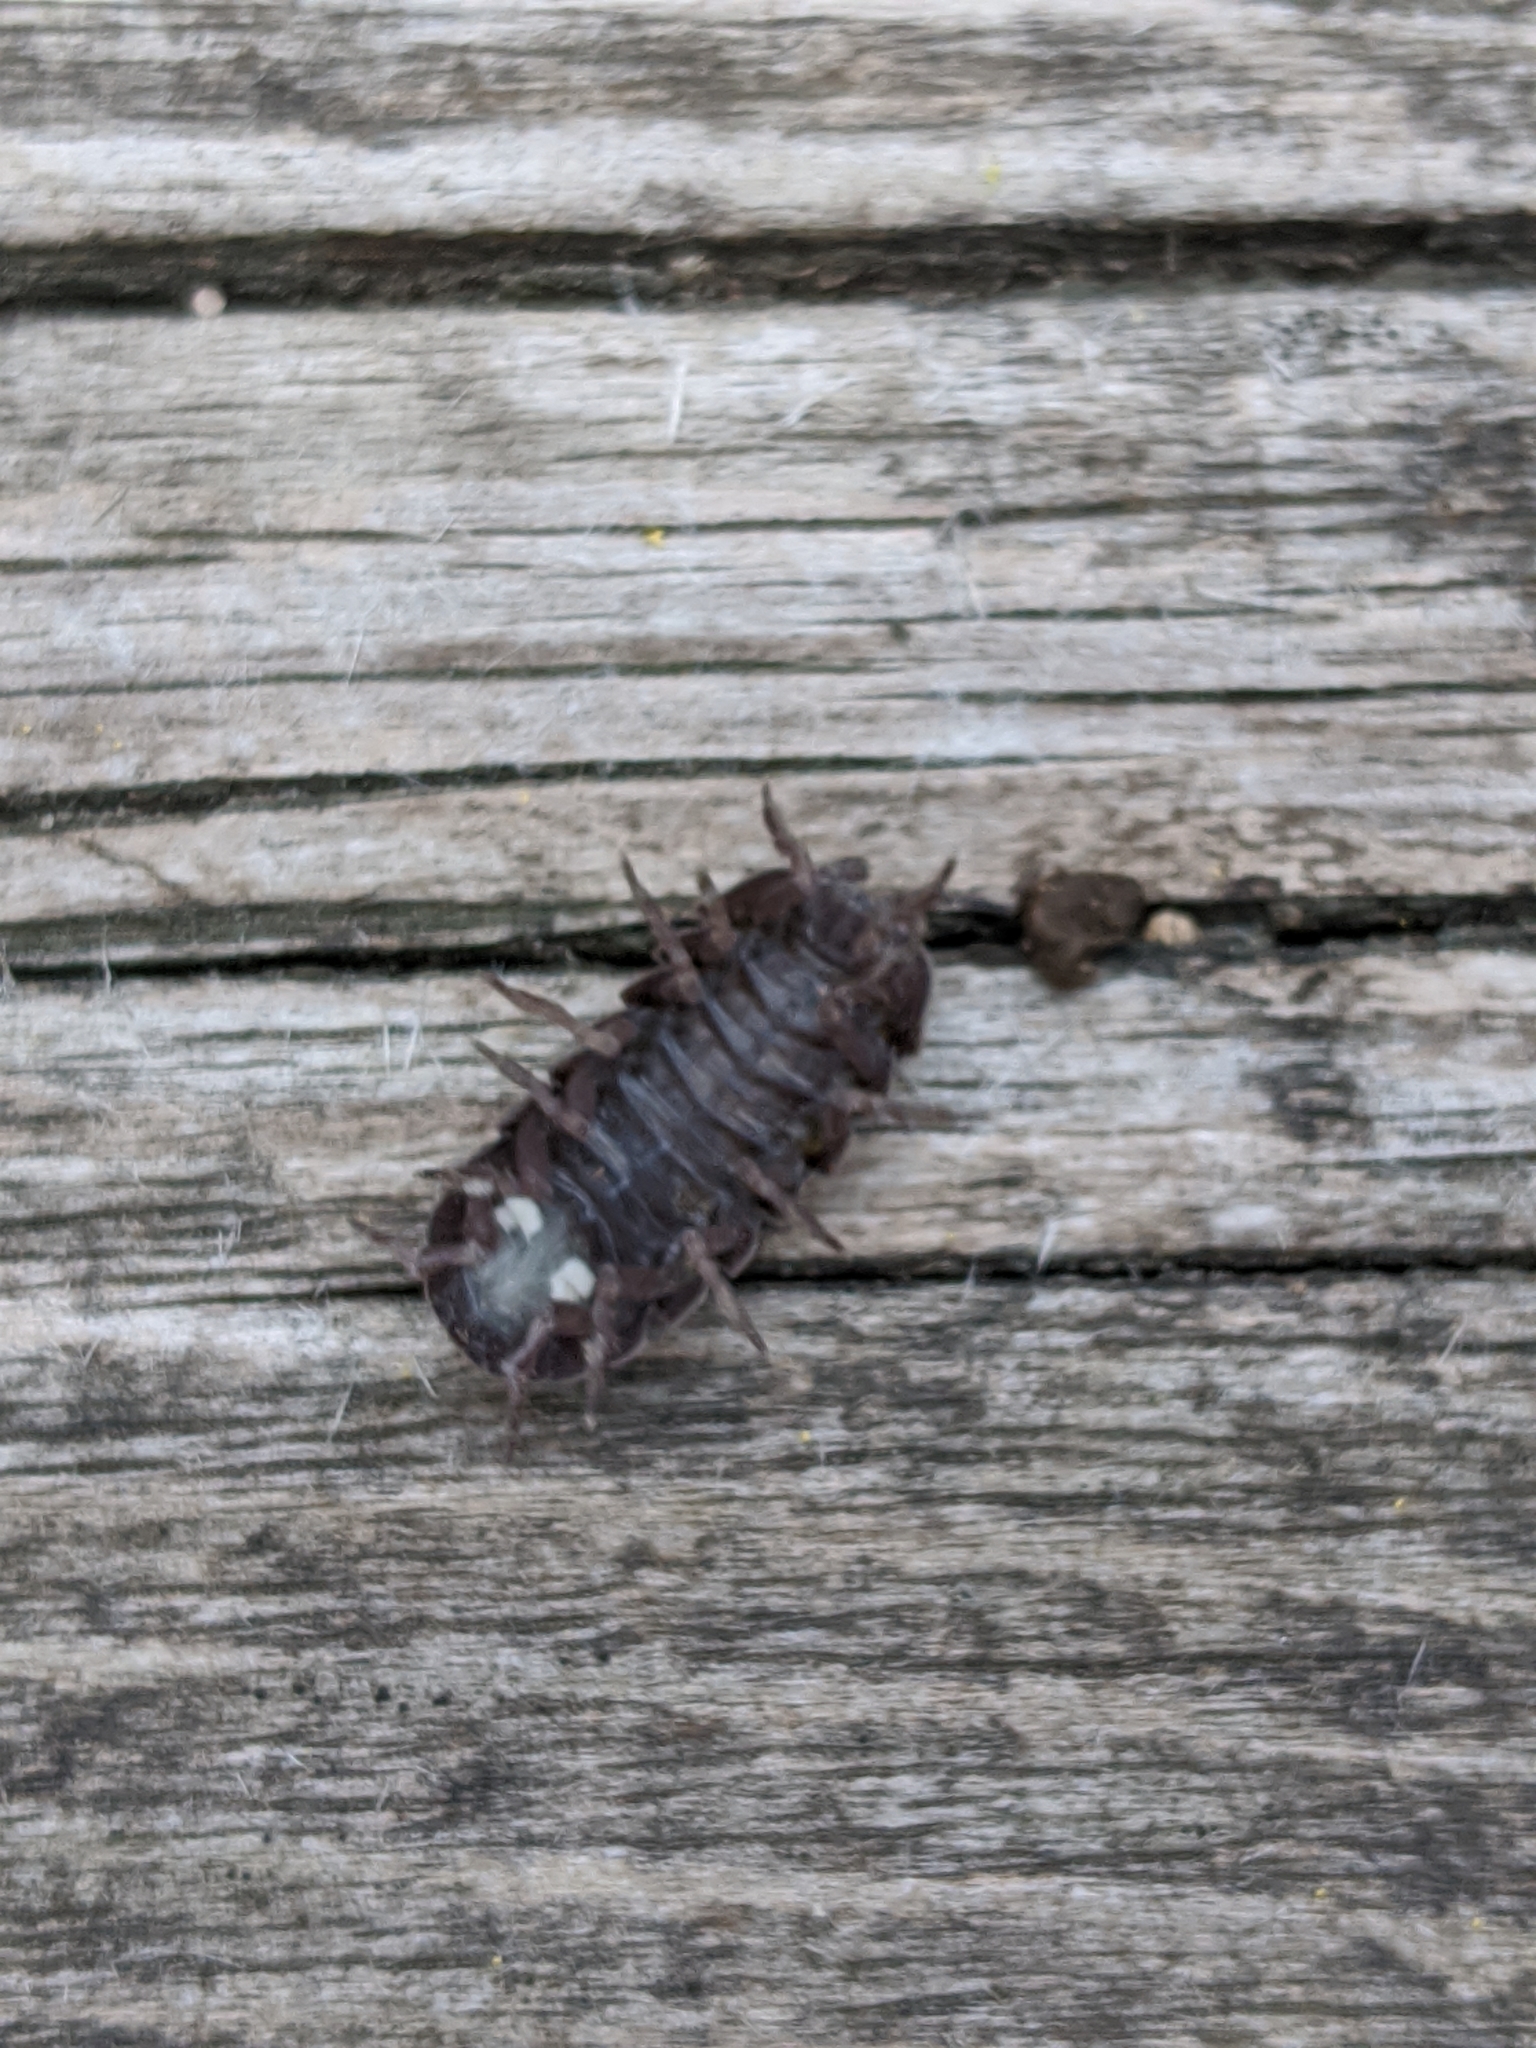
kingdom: Animalia
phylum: Arthropoda
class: Malacostraca
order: Isopoda
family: Armadillidiidae
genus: Armadillidium
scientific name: Armadillidium vulgare
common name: Common pill woodlouse
